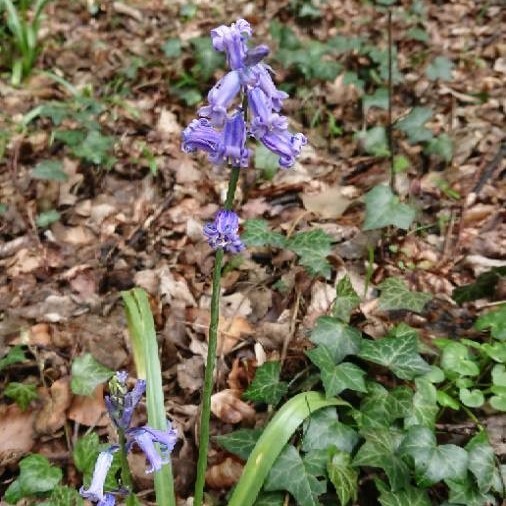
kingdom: Plantae
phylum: Tracheophyta
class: Liliopsida
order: Asparagales
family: Asparagaceae
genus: Hyacinthoides
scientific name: Hyacinthoides hispanica
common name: Spanish bluebell
